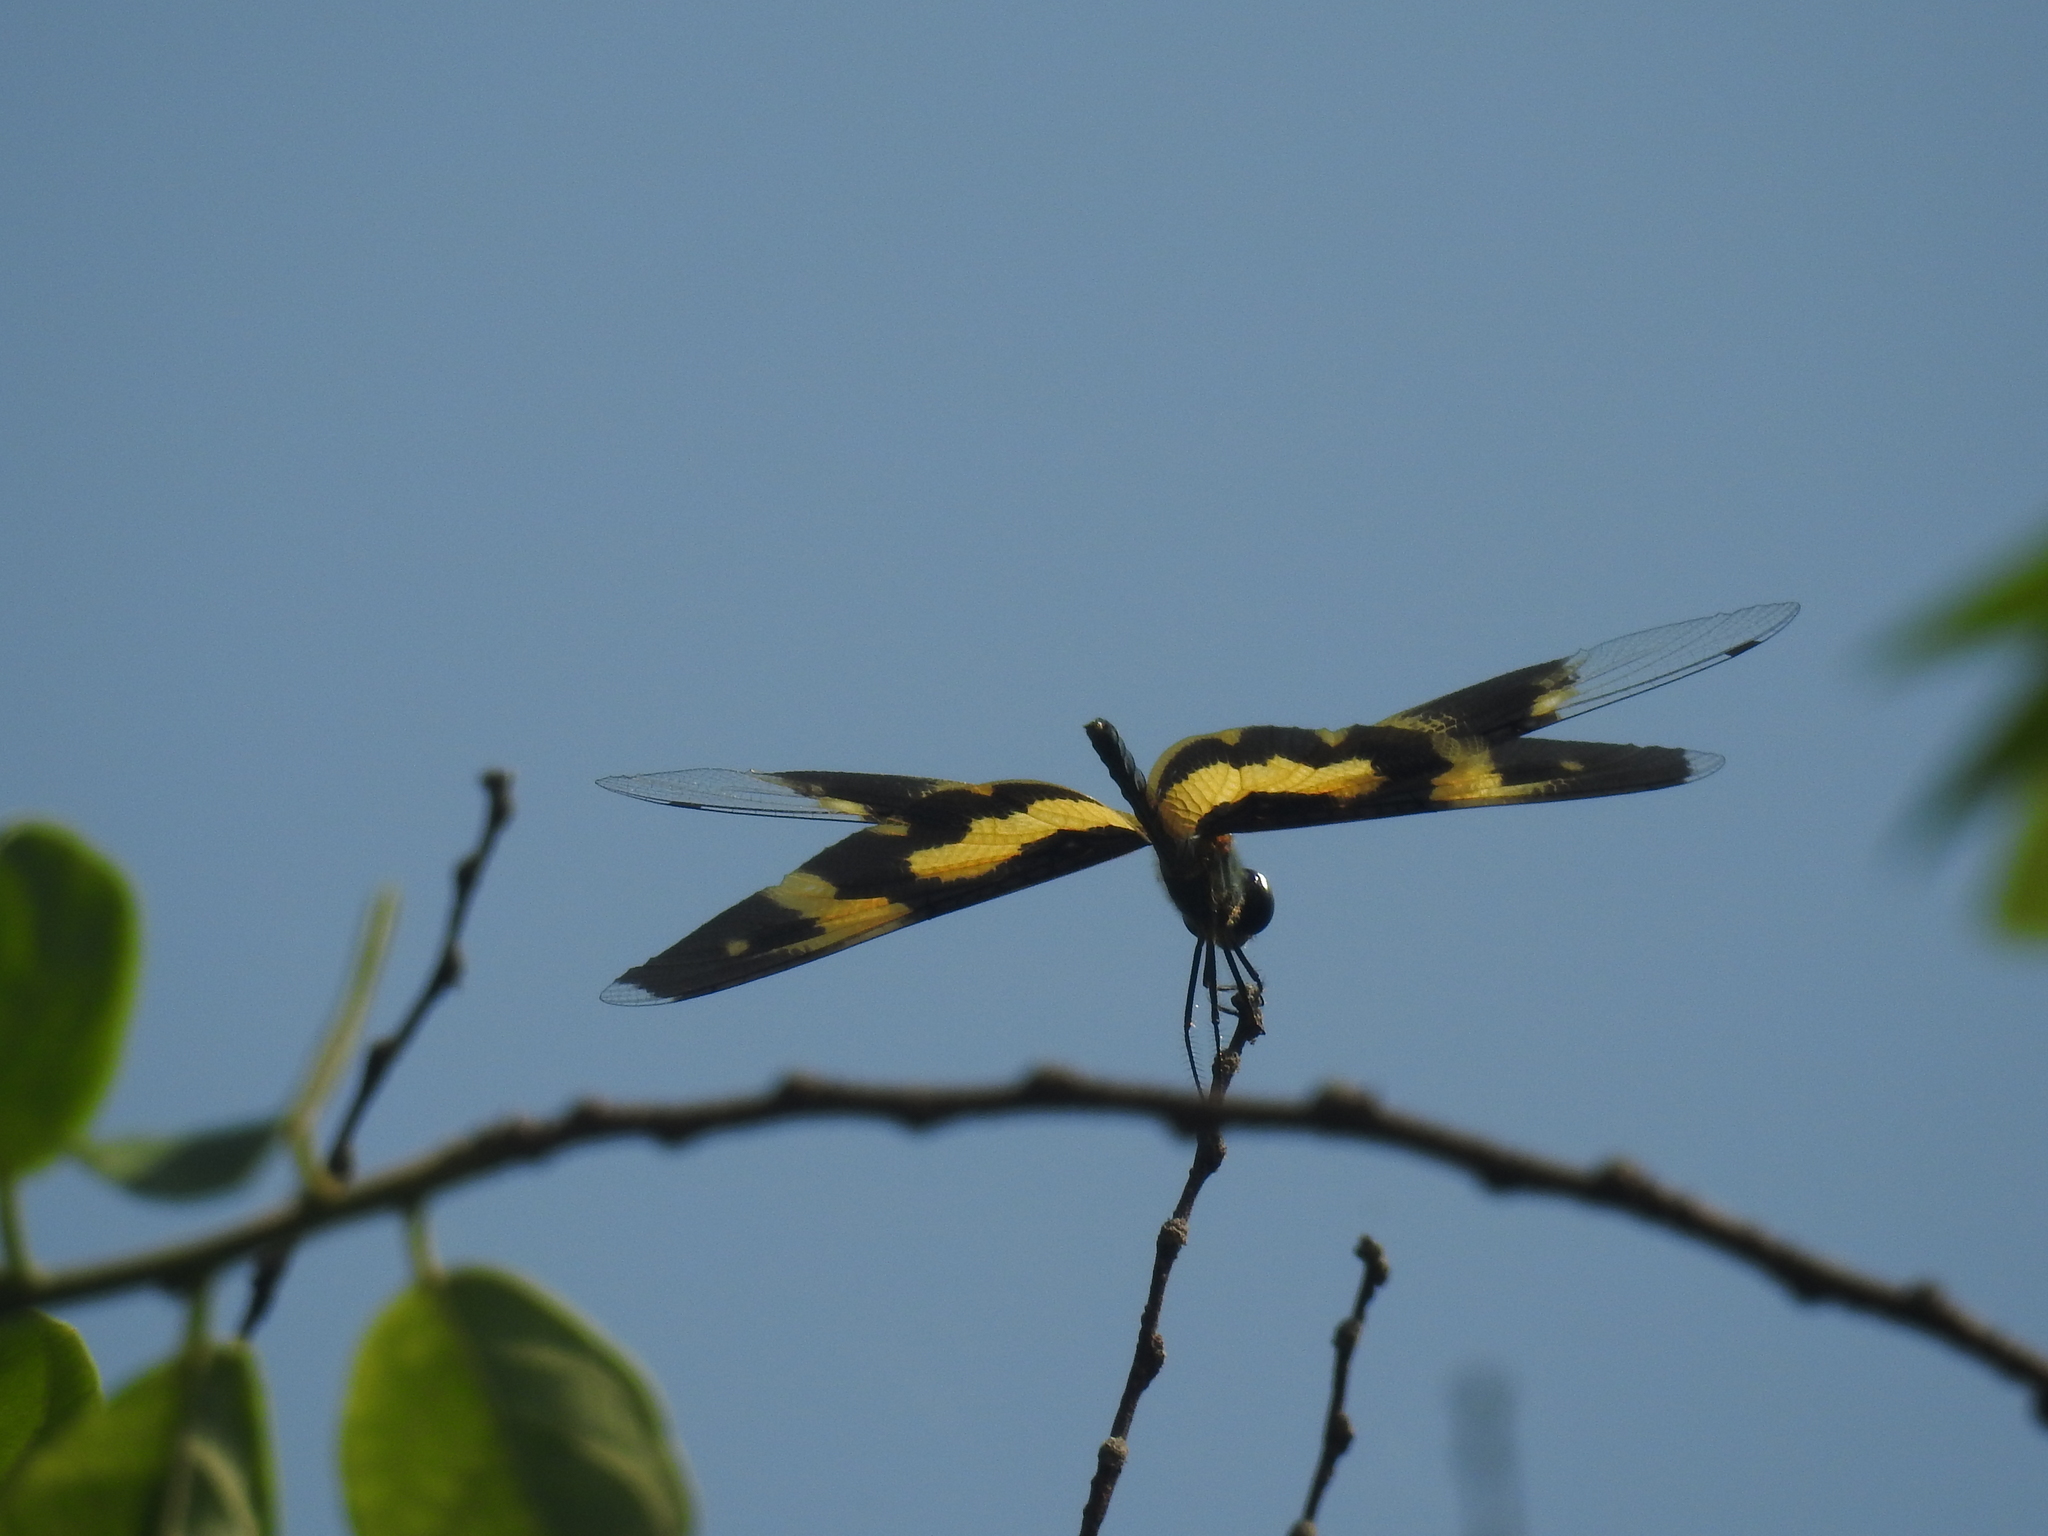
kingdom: Animalia
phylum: Arthropoda
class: Insecta
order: Odonata
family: Libellulidae
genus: Rhyothemis
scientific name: Rhyothemis variegata
